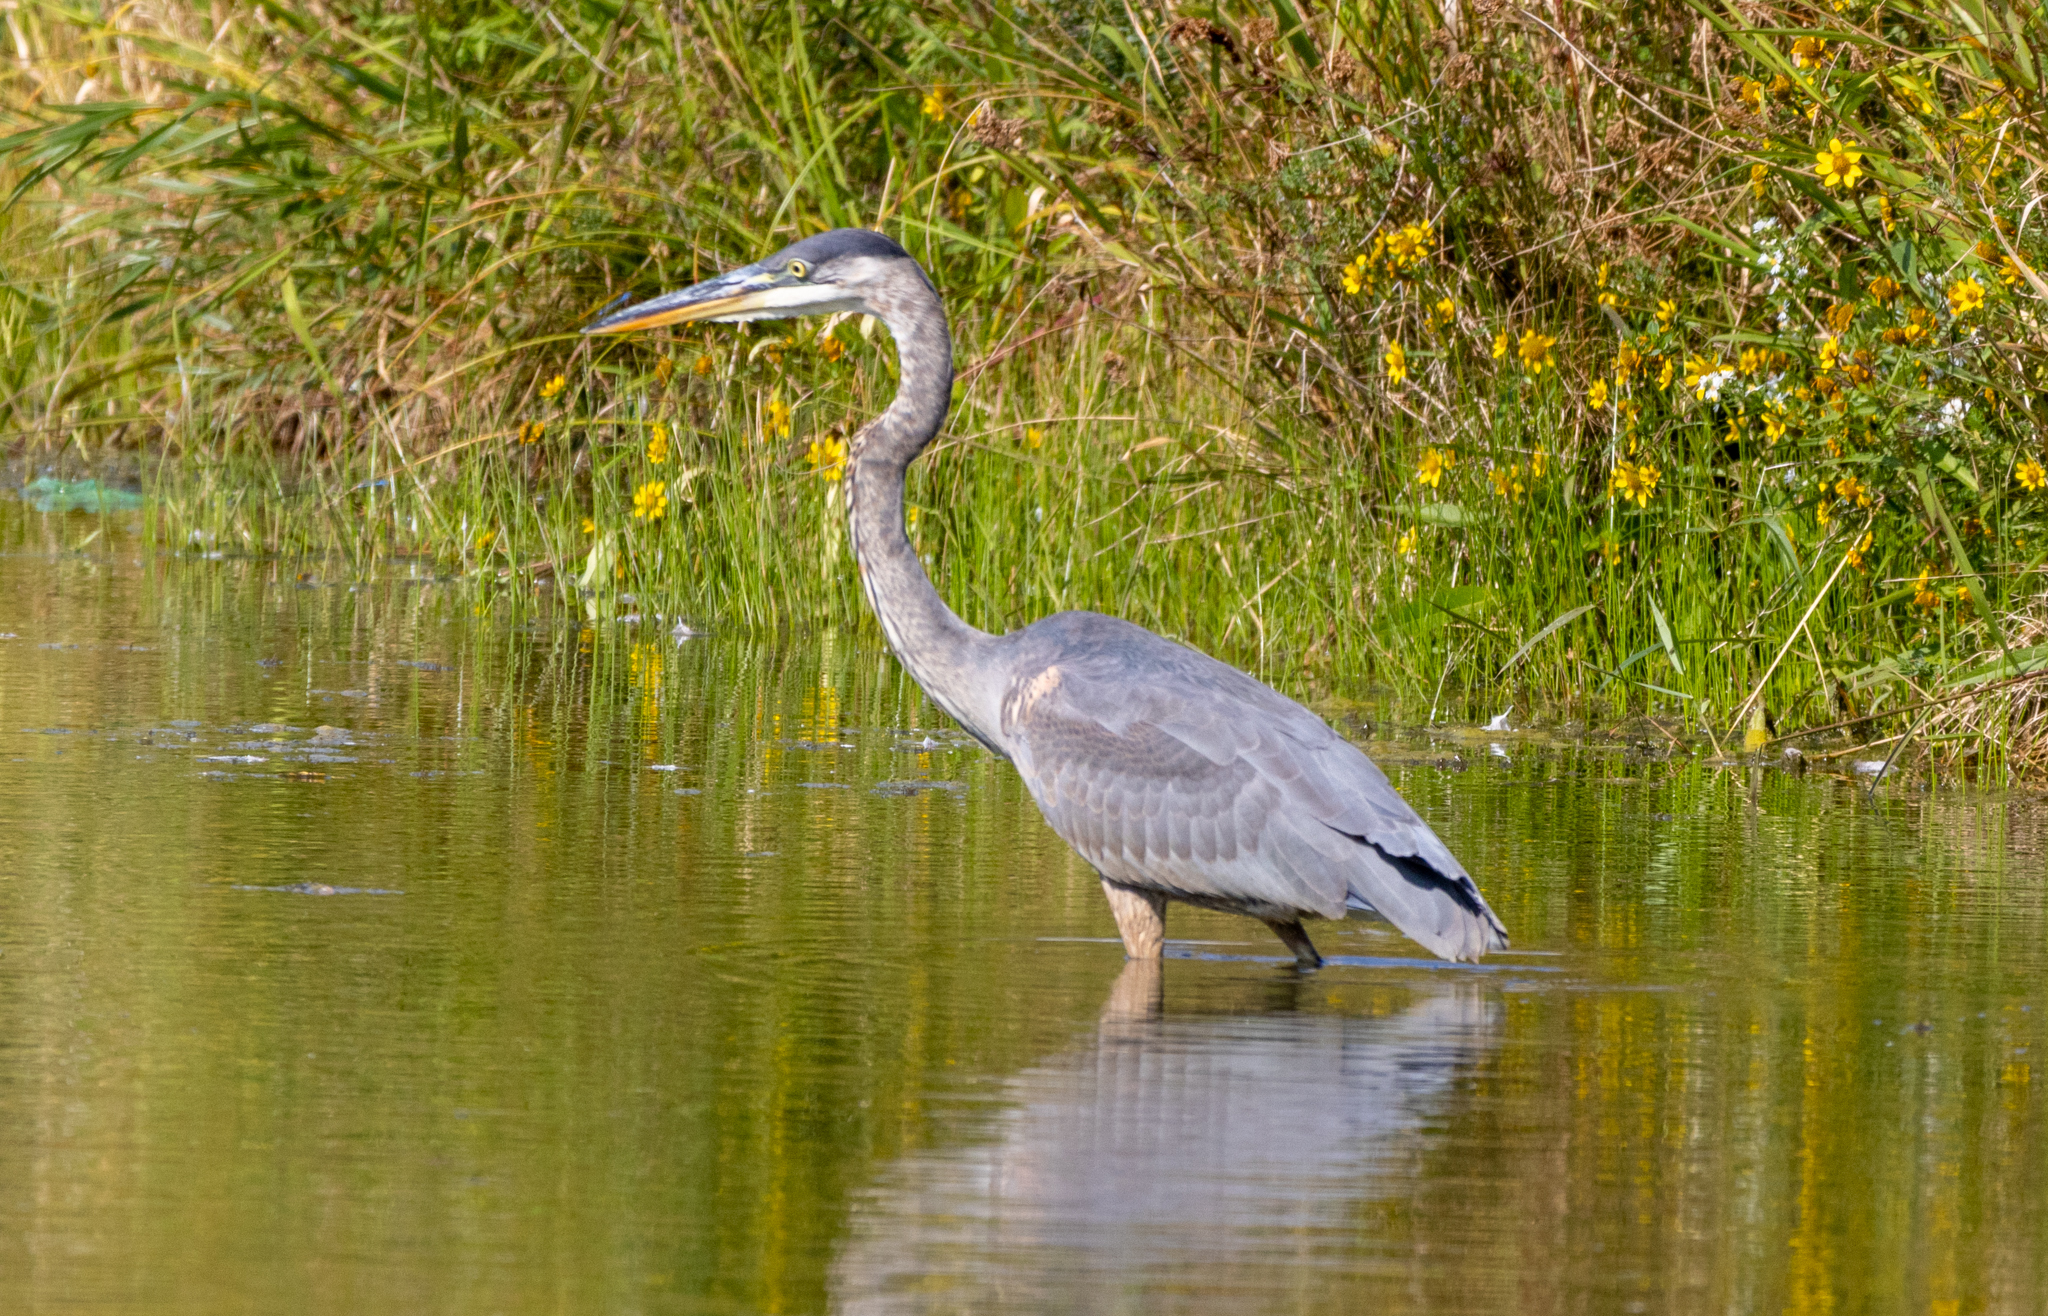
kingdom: Animalia
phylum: Chordata
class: Aves
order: Pelecaniformes
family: Ardeidae
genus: Ardea
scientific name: Ardea herodias
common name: Great blue heron
